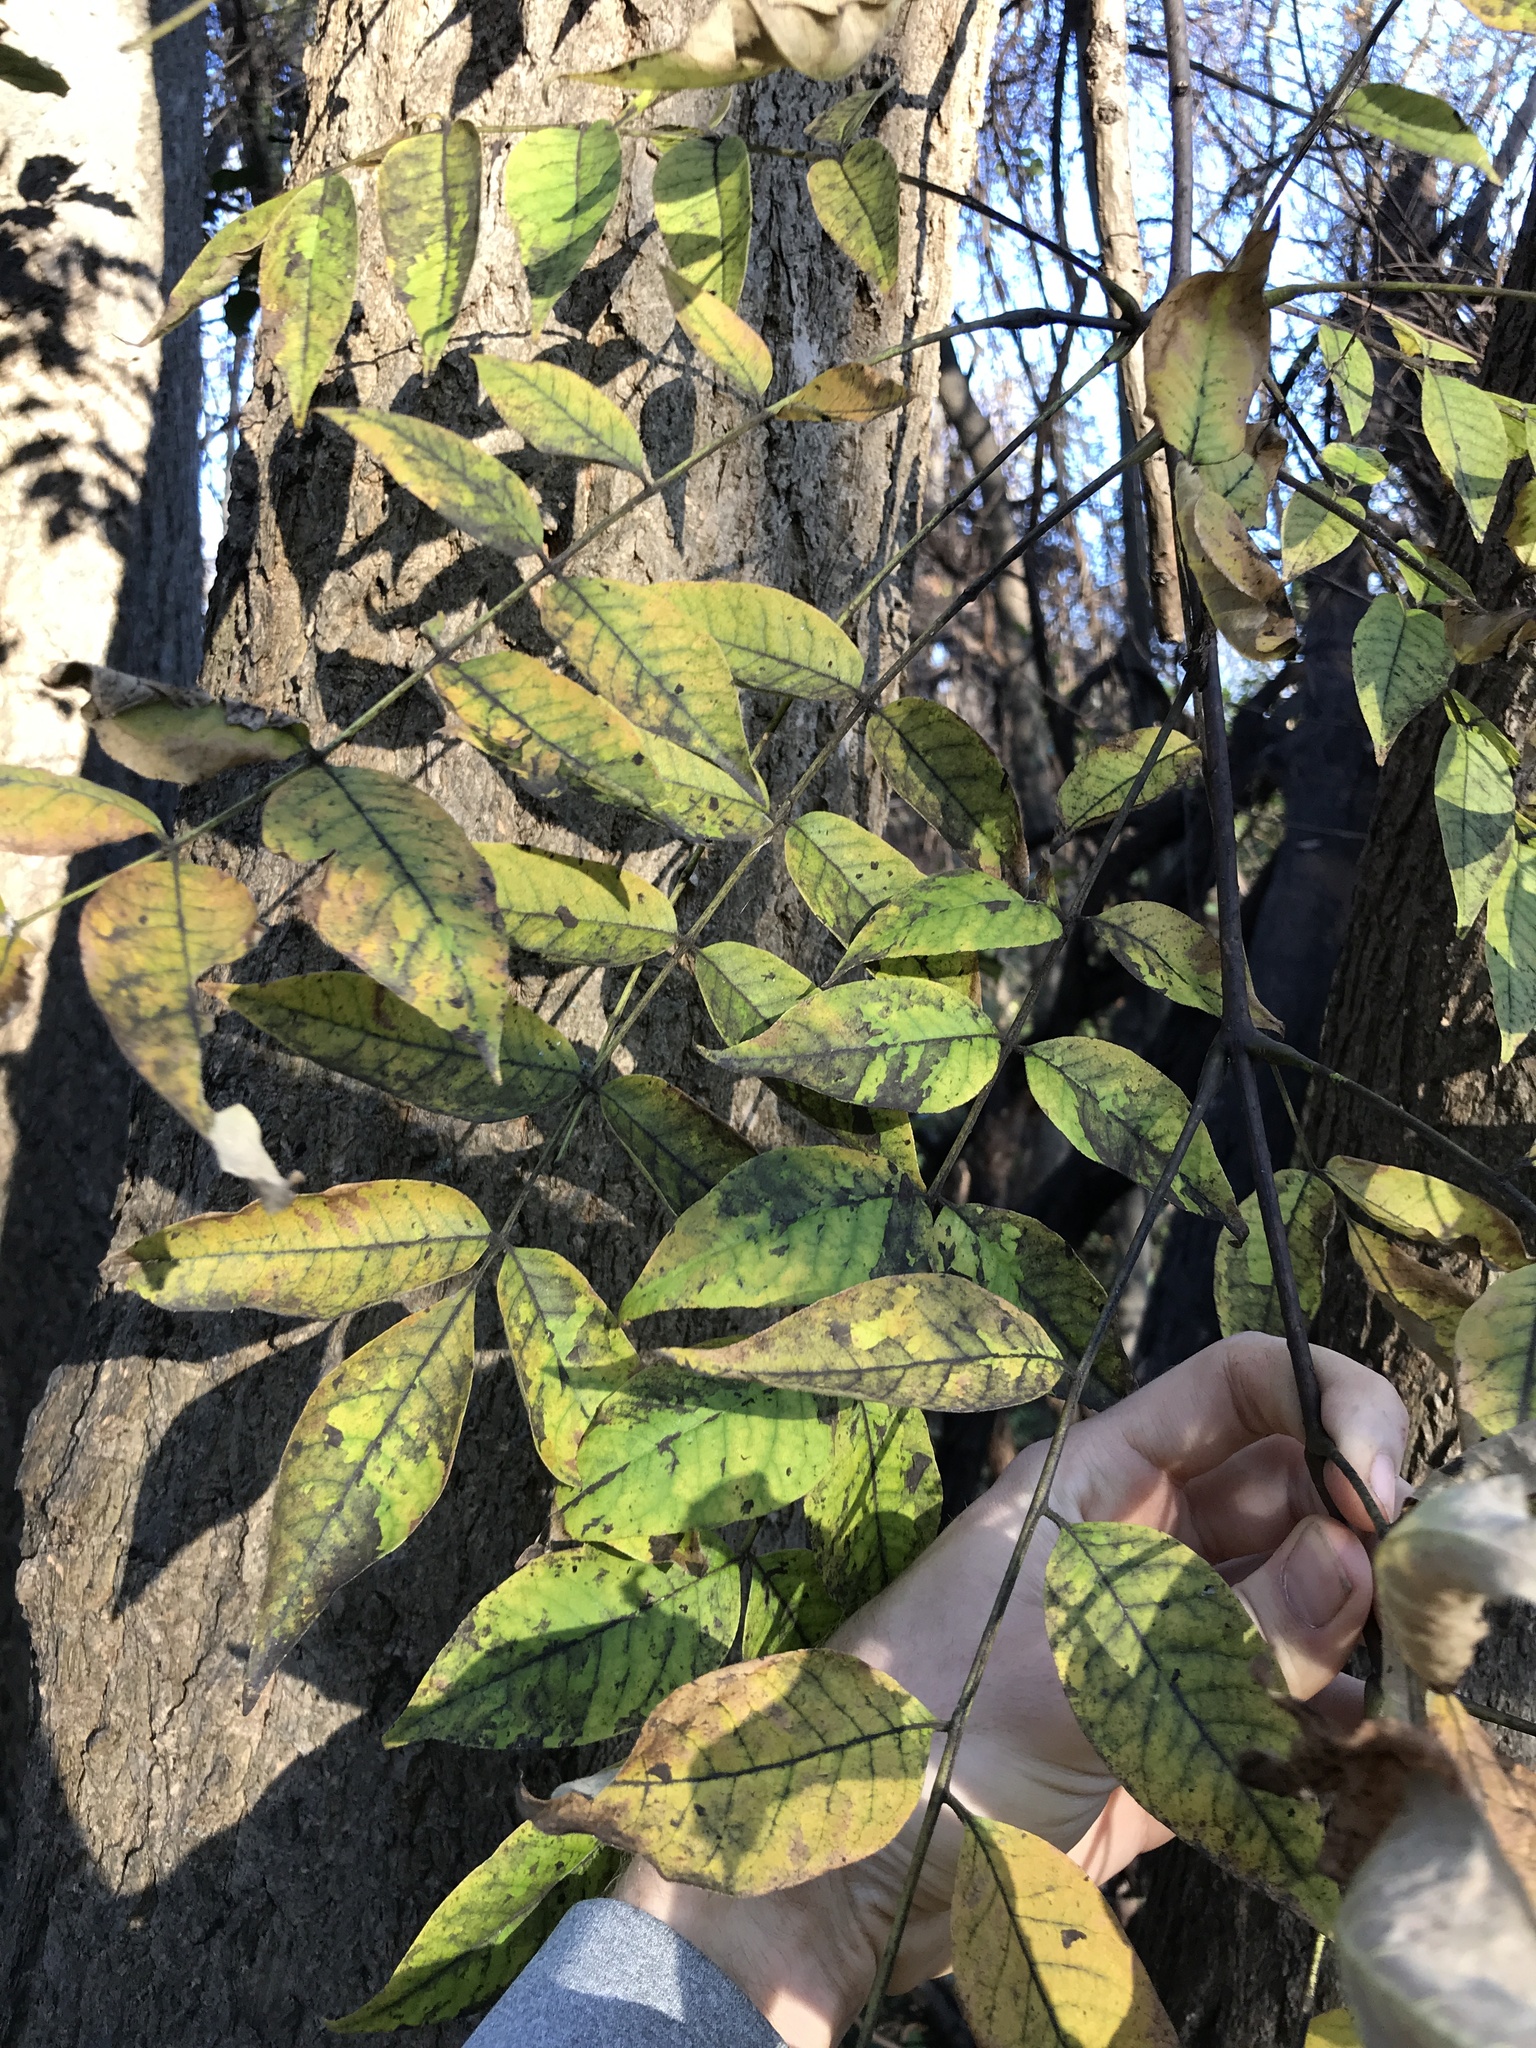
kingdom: Plantae
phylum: Tracheophyta
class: Magnoliopsida
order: Sapindales
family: Rutaceae
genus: Phellodendron
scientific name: Phellodendron amurense
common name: Amur corktree
